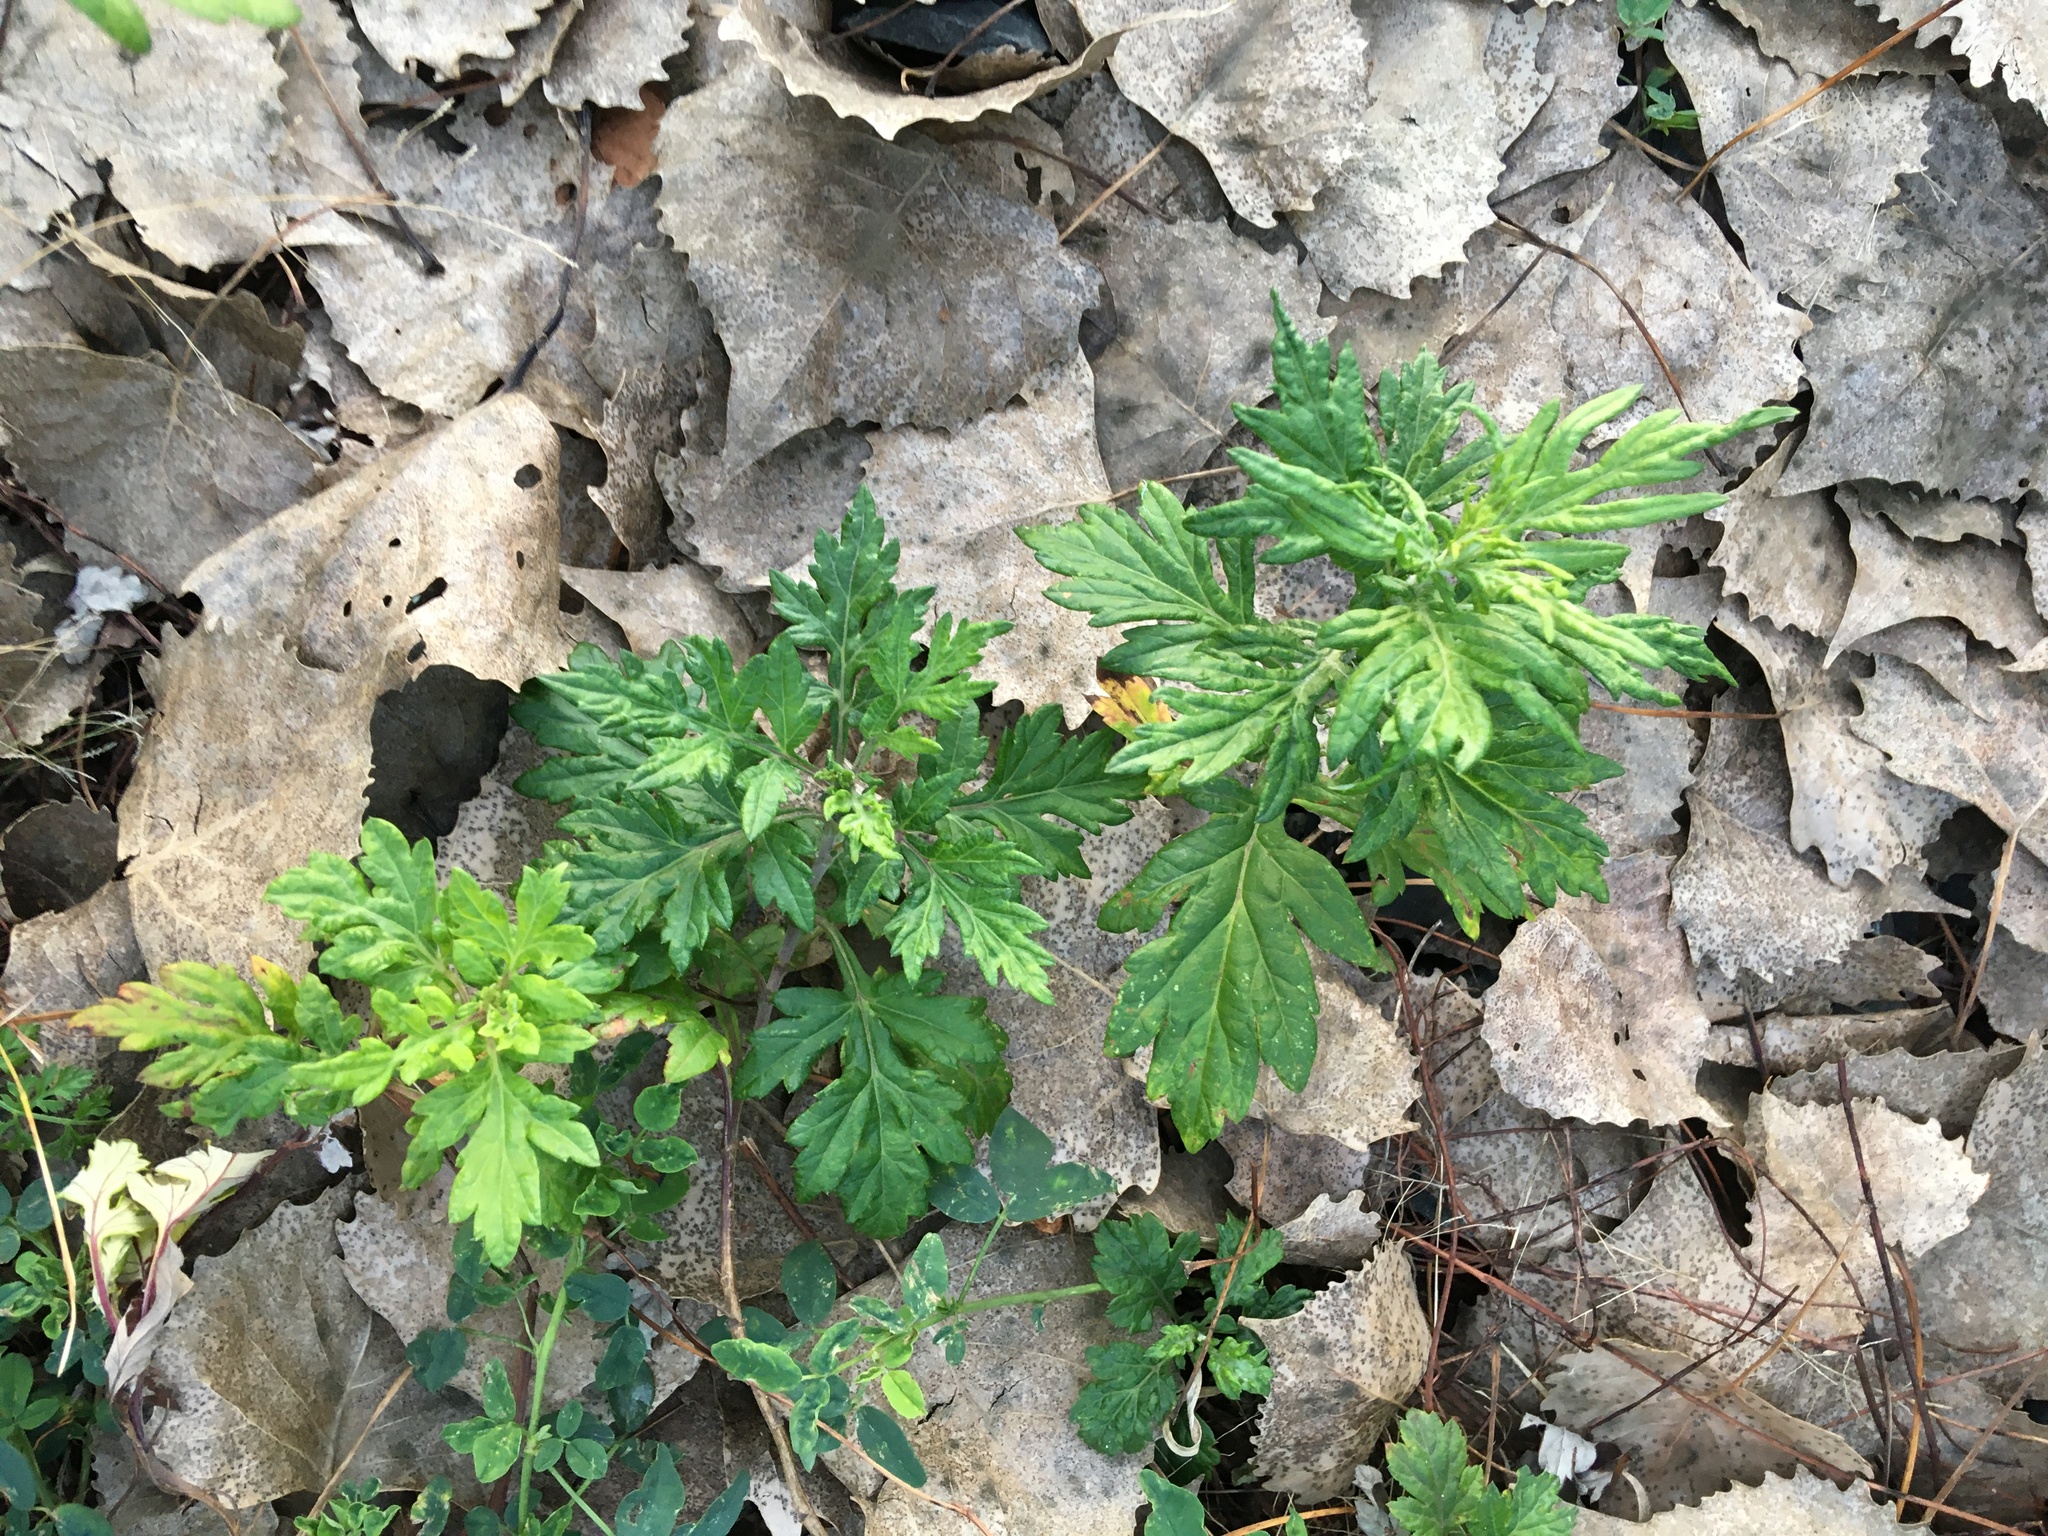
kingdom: Plantae
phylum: Tracheophyta
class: Magnoliopsida
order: Asterales
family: Asteraceae
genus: Artemisia
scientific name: Artemisia vulgaris
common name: Mugwort
